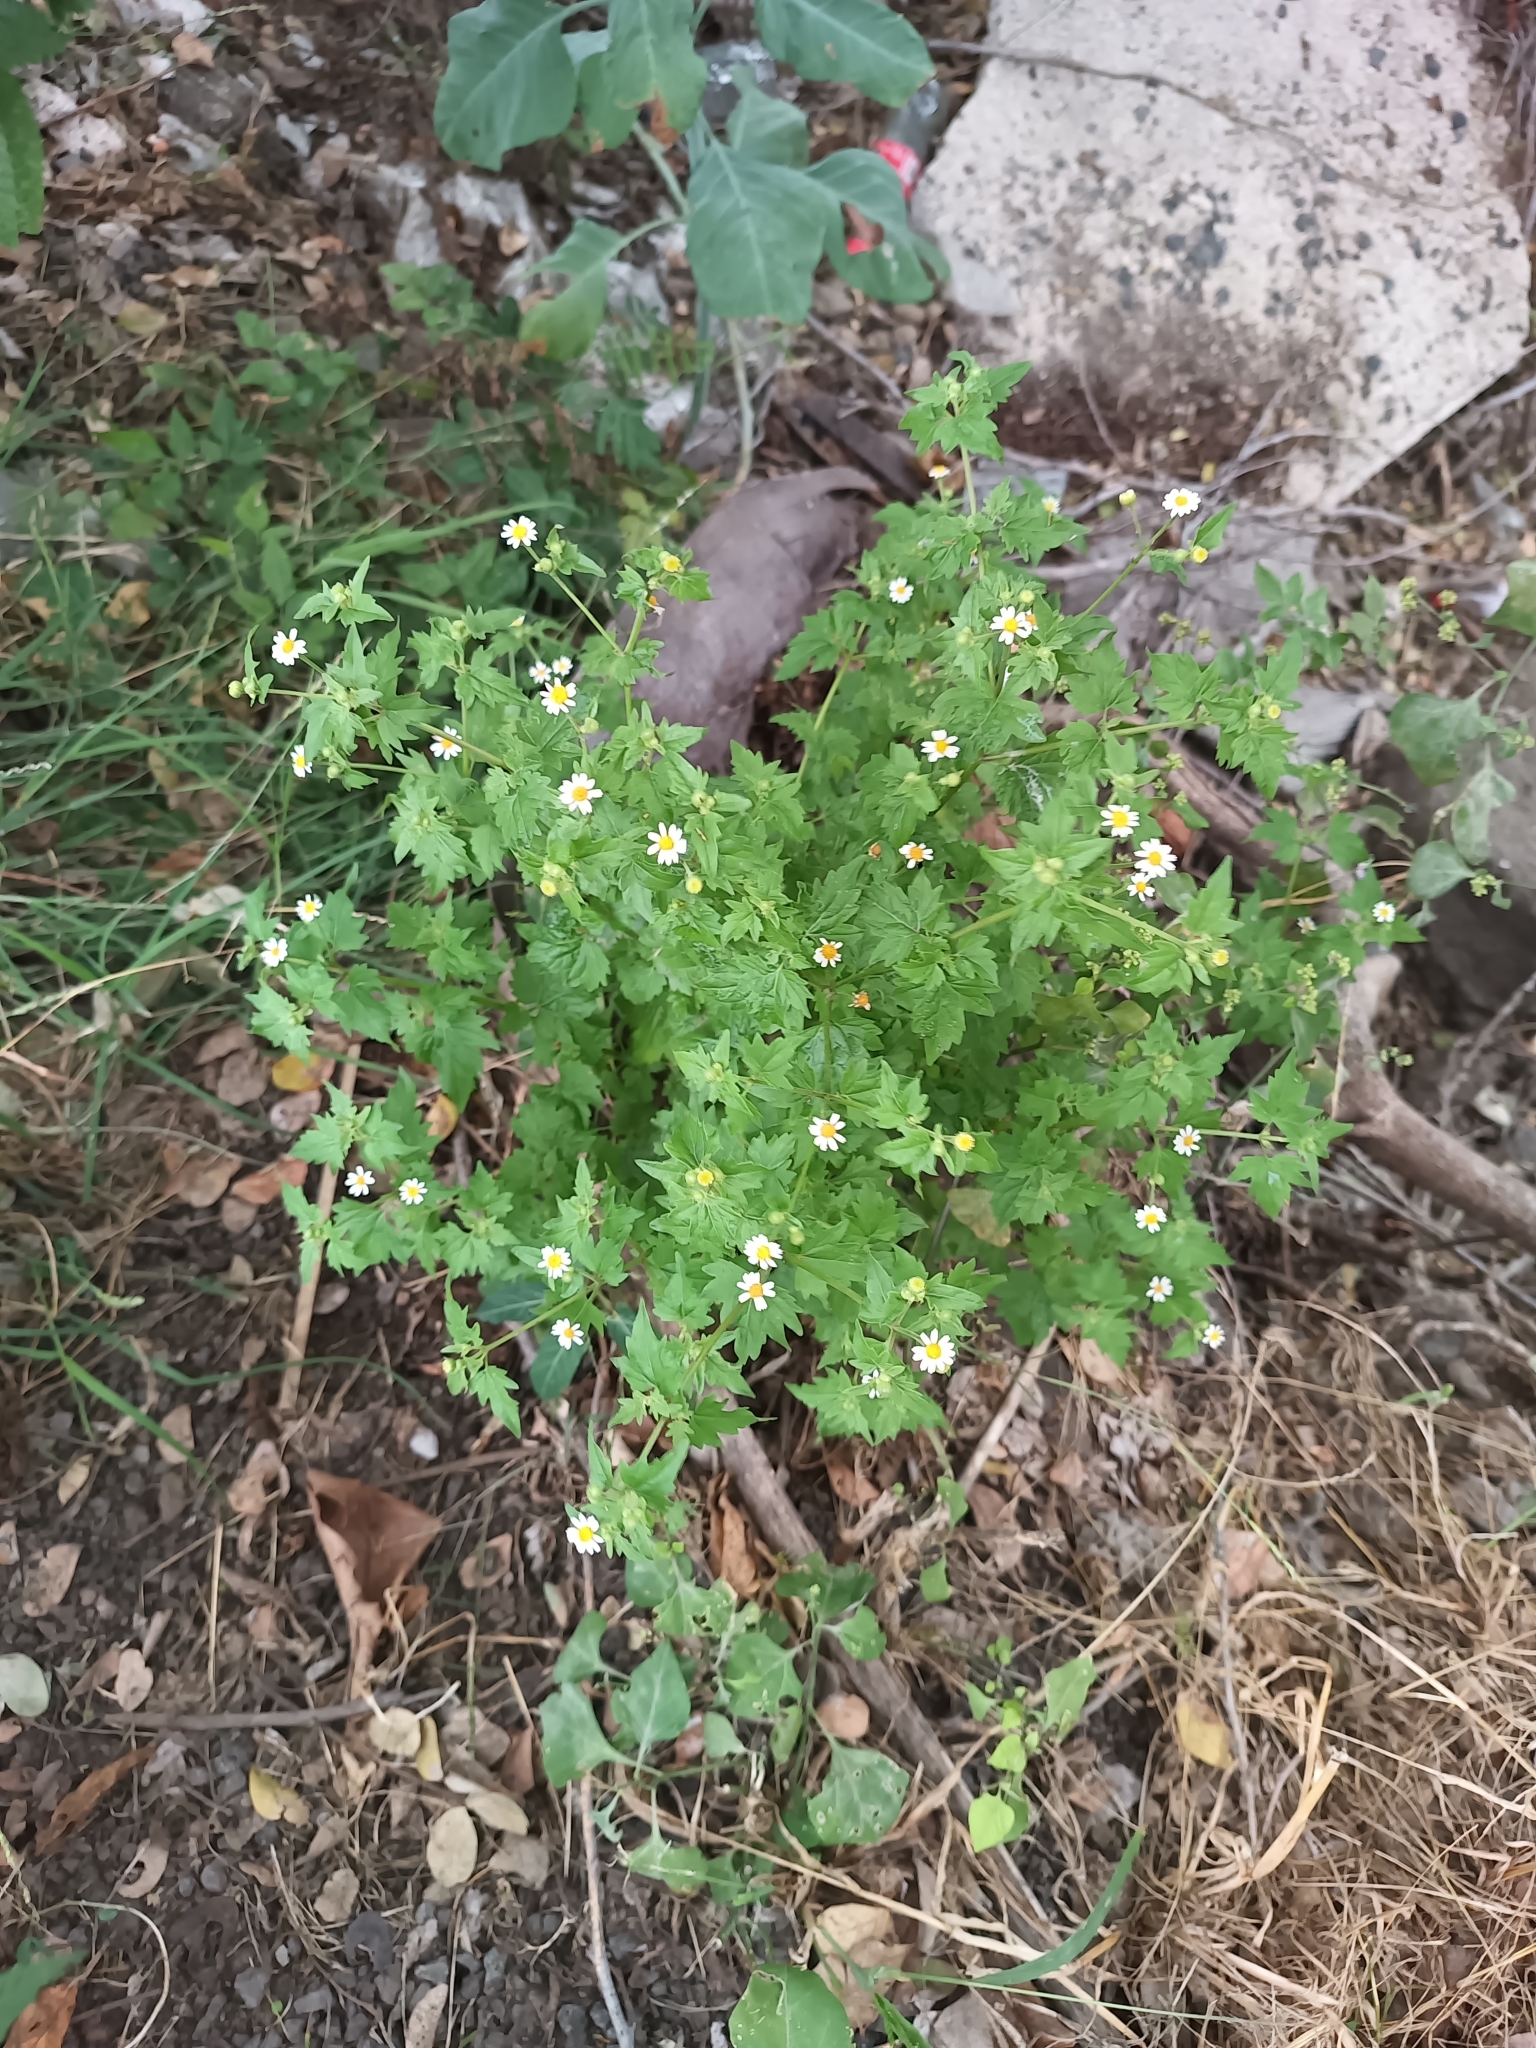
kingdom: Plantae
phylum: Tracheophyta
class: Magnoliopsida
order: Asterales
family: Asteraceae
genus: Galinsogeopsis
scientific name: Galinsogeopsis spilanthoides
